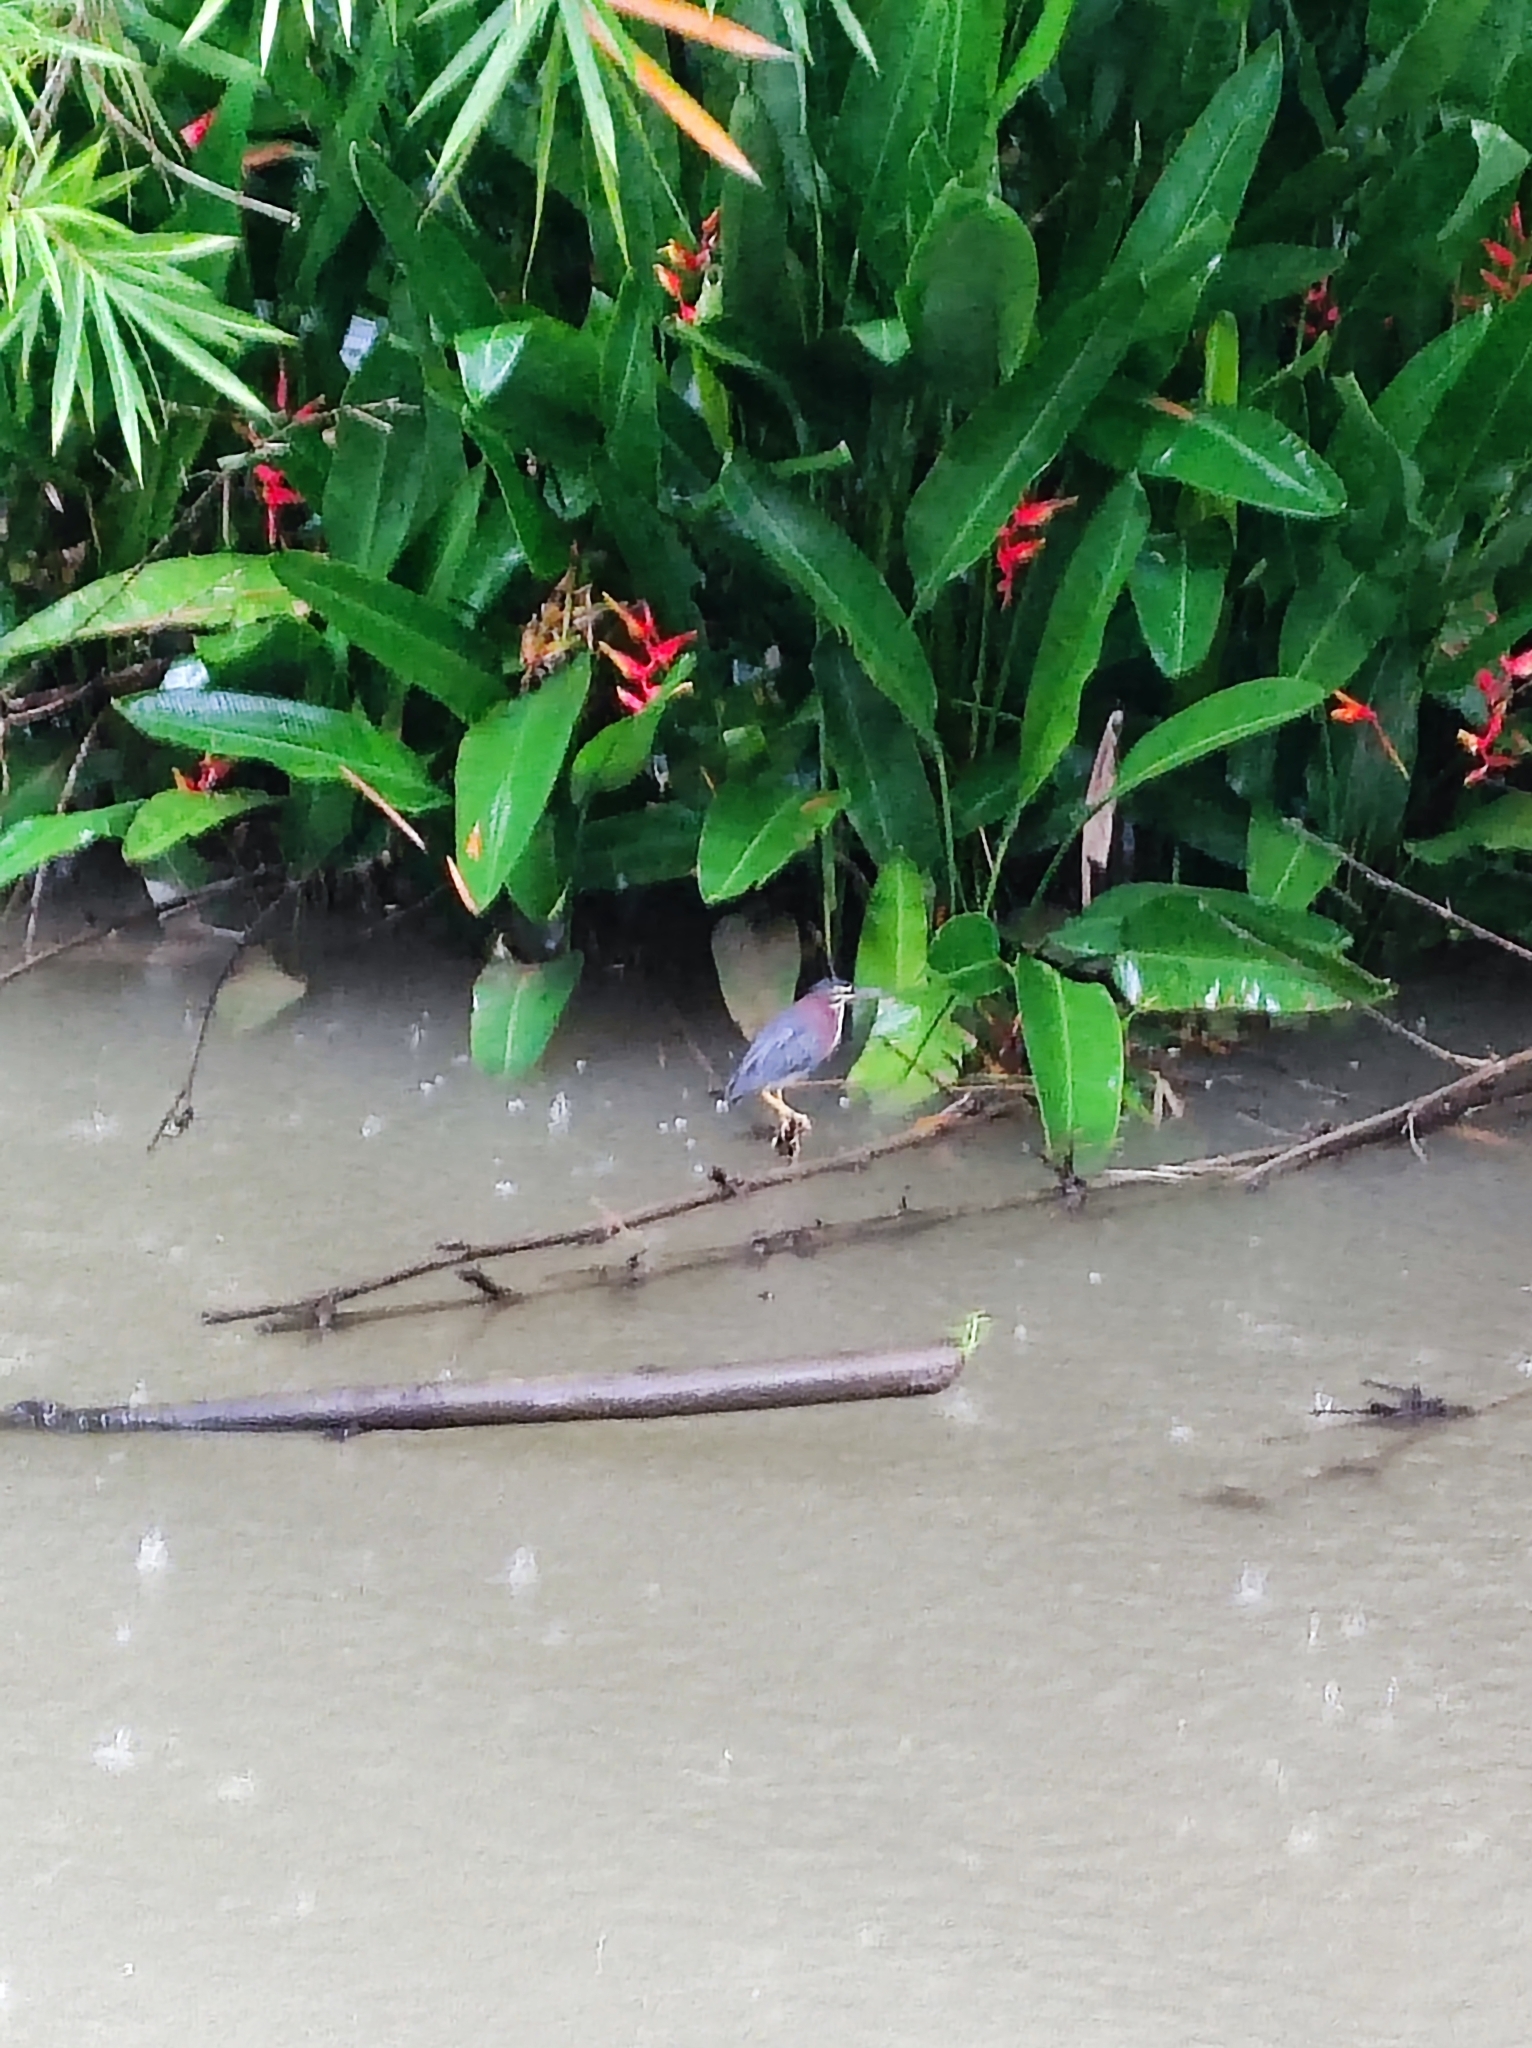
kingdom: Animalia
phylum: Chordata
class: Aves
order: Pelecaniformes
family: Ardeidae
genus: Butorides
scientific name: Butorides virescens
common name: Green heron
